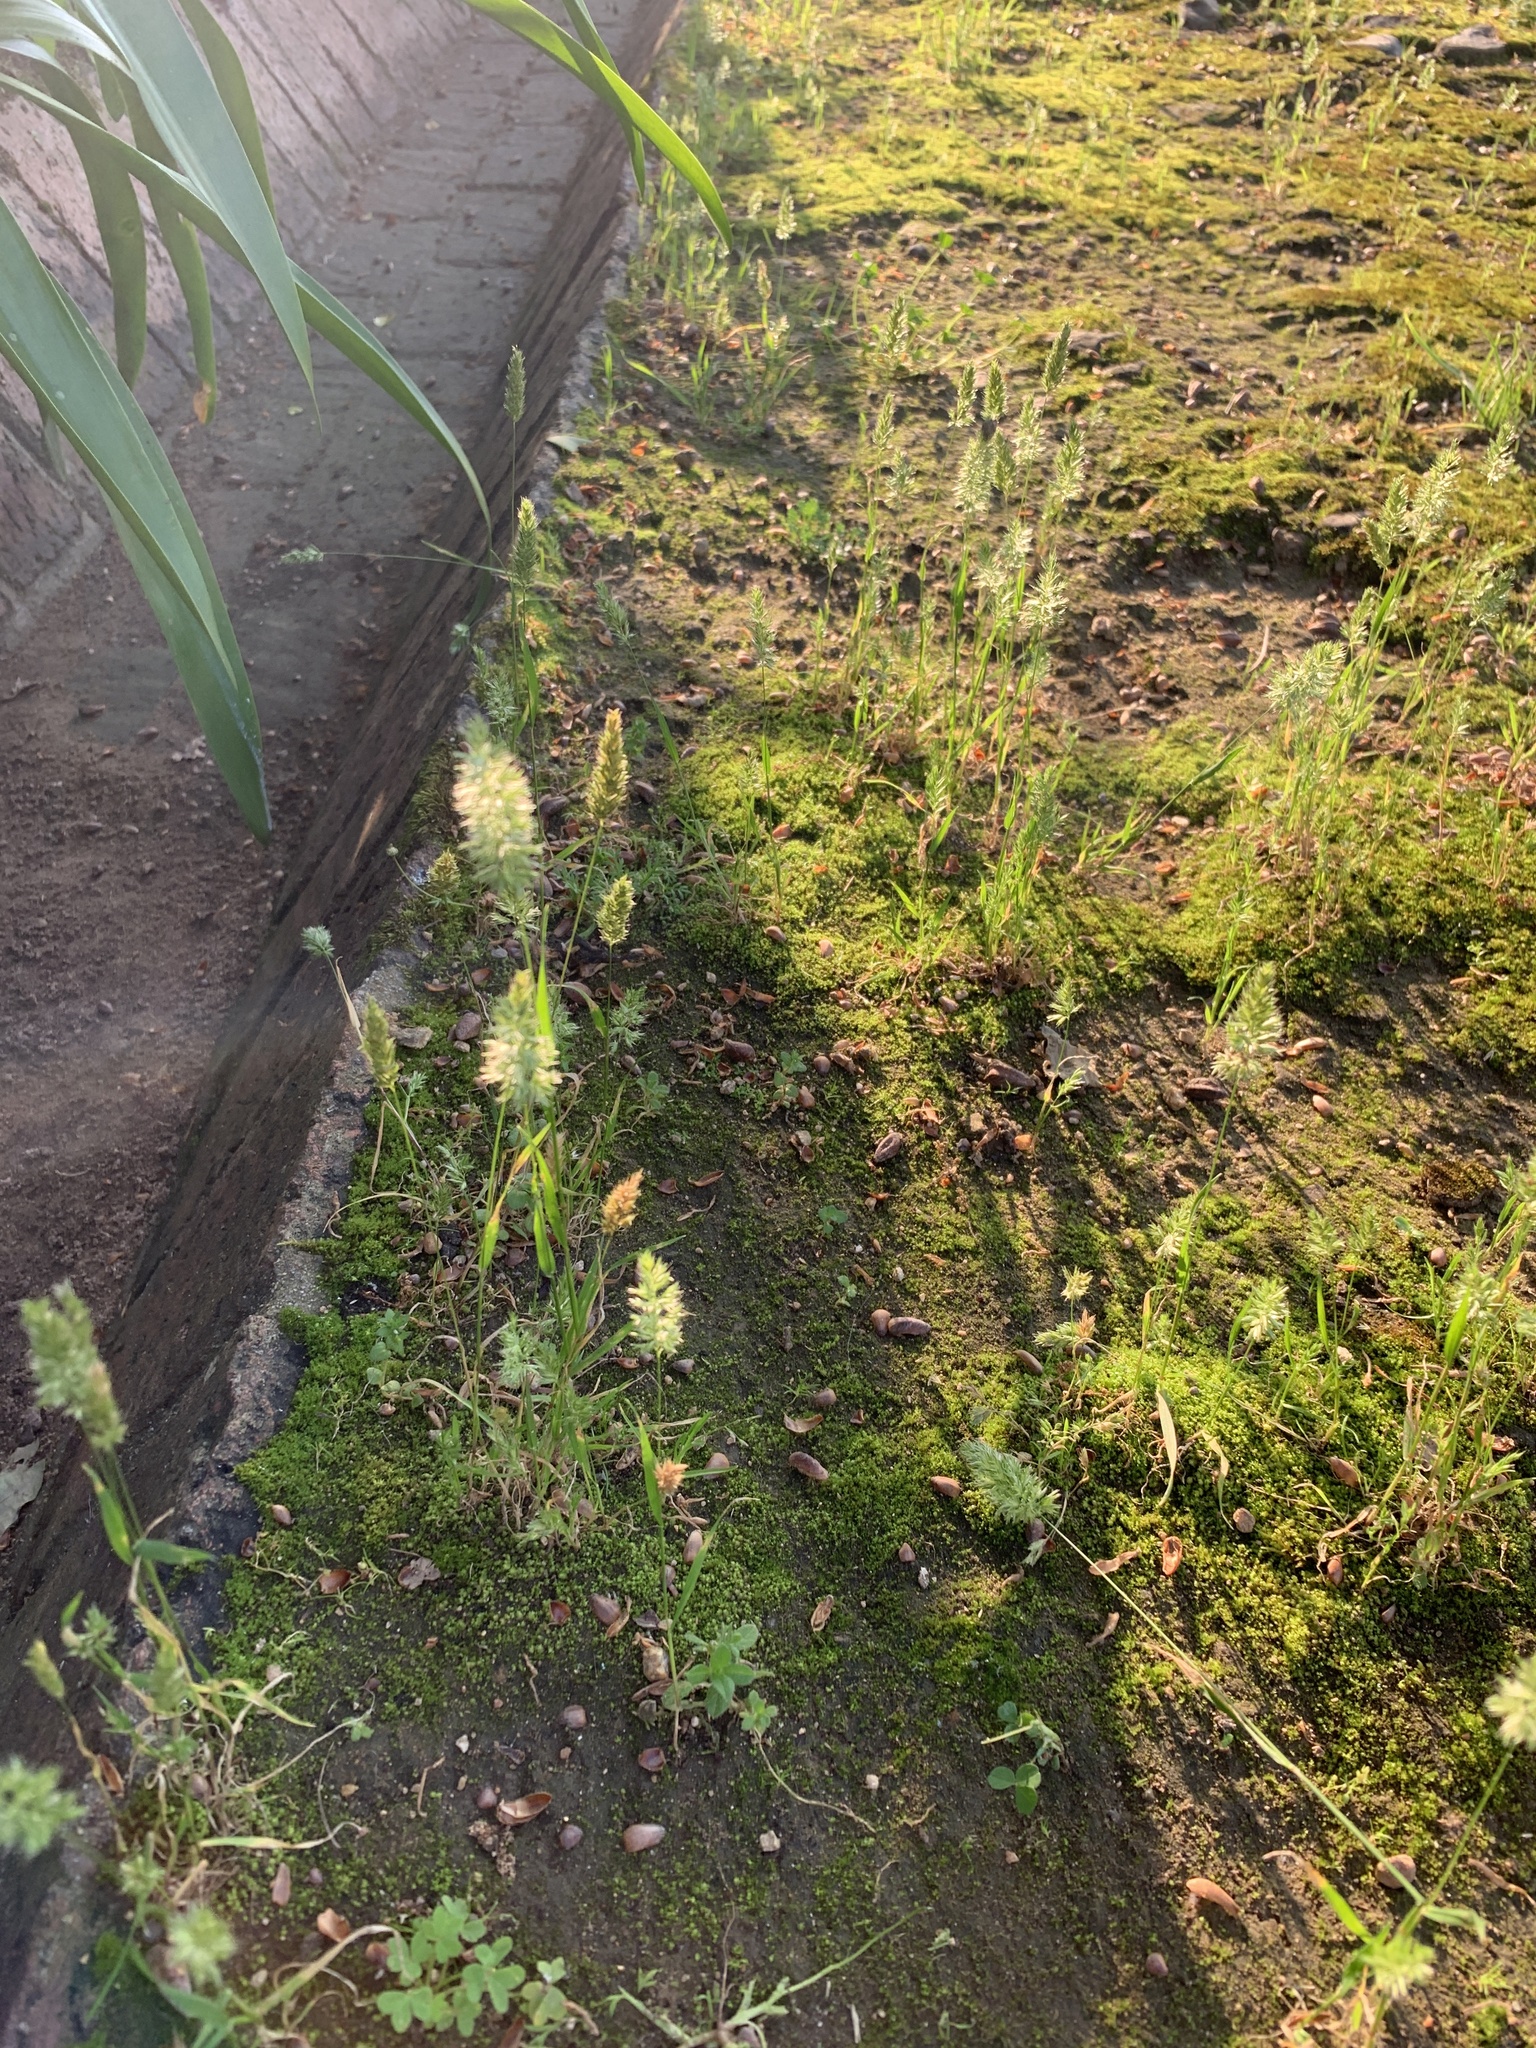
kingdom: Plantae
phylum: Tracheophyta
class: Liliopsida
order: Poales
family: Poaceae
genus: Rostraria
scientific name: Rostraria cristata
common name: Mediterranean hair-grass
